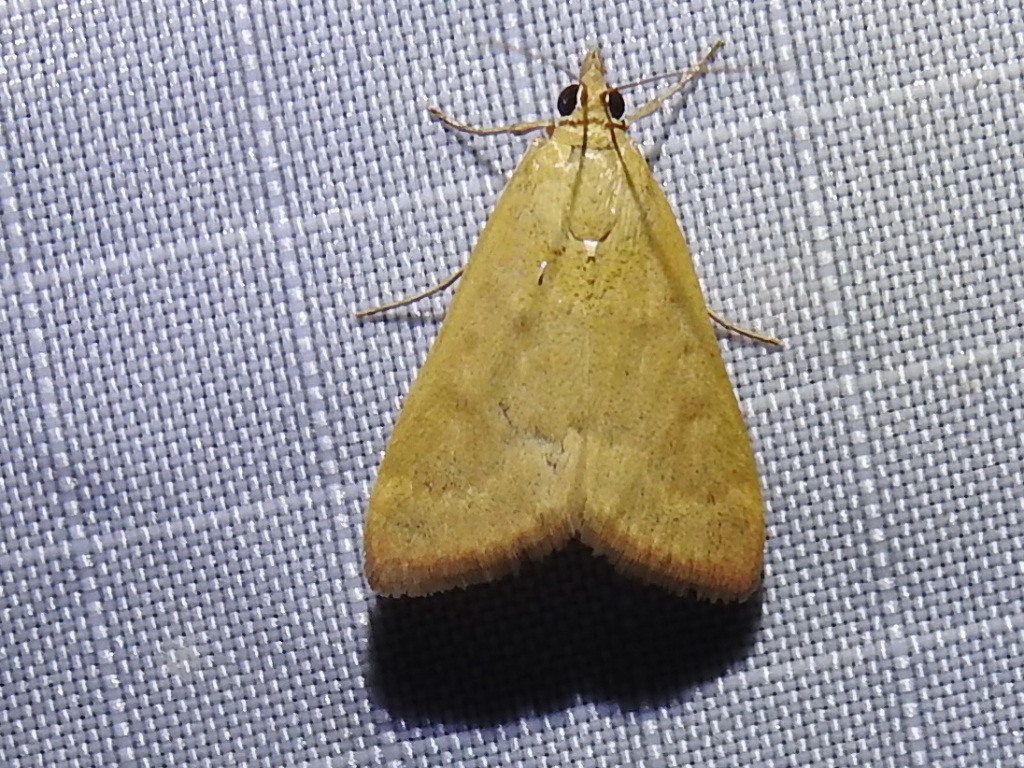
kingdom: Animalia
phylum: Arthropoda
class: Insecta
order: Lepidoptera
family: Crambidae
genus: Achyra
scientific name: Achyra rantalis
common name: Garden webworm
